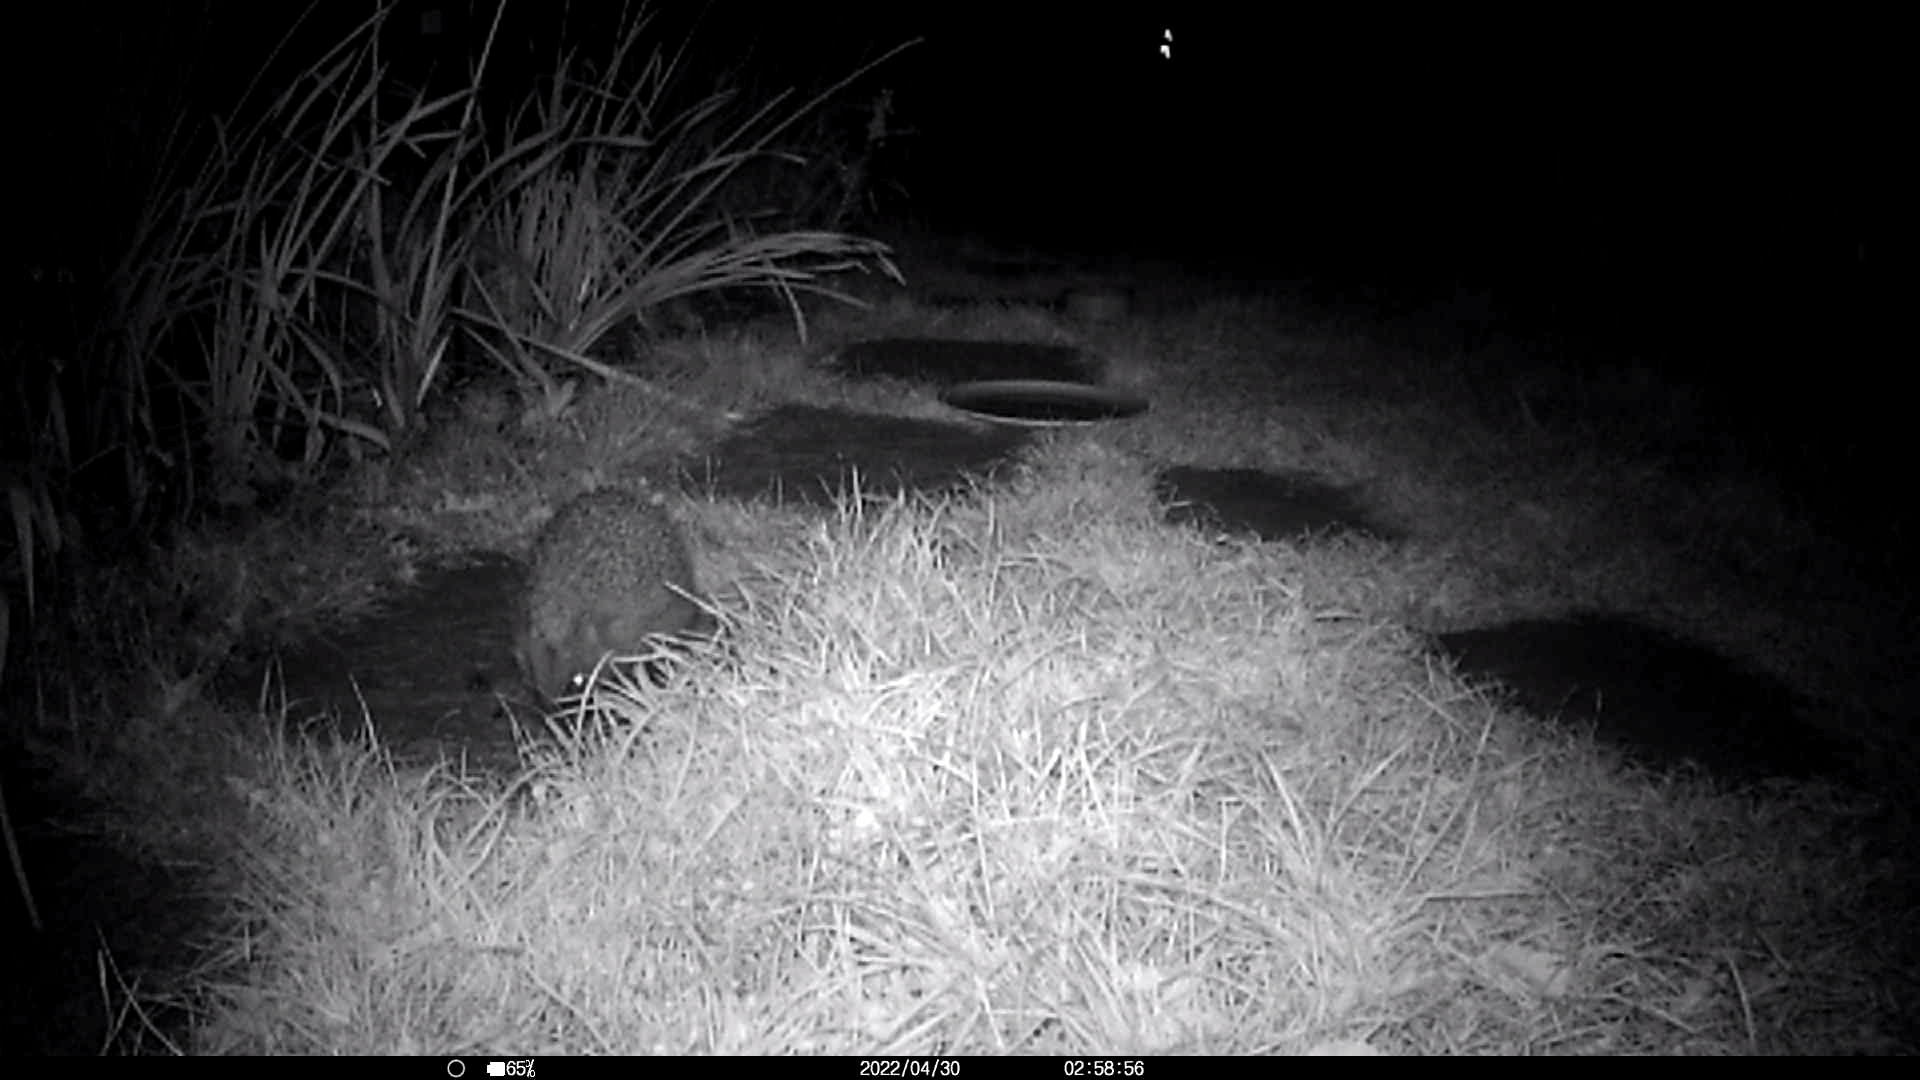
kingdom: Animalia
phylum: Chordata
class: Mammalia
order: Erinaceomorpha
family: Erinaceidae
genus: Erinaceus
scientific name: Erinaceus europaeus
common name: West european hedgehog
